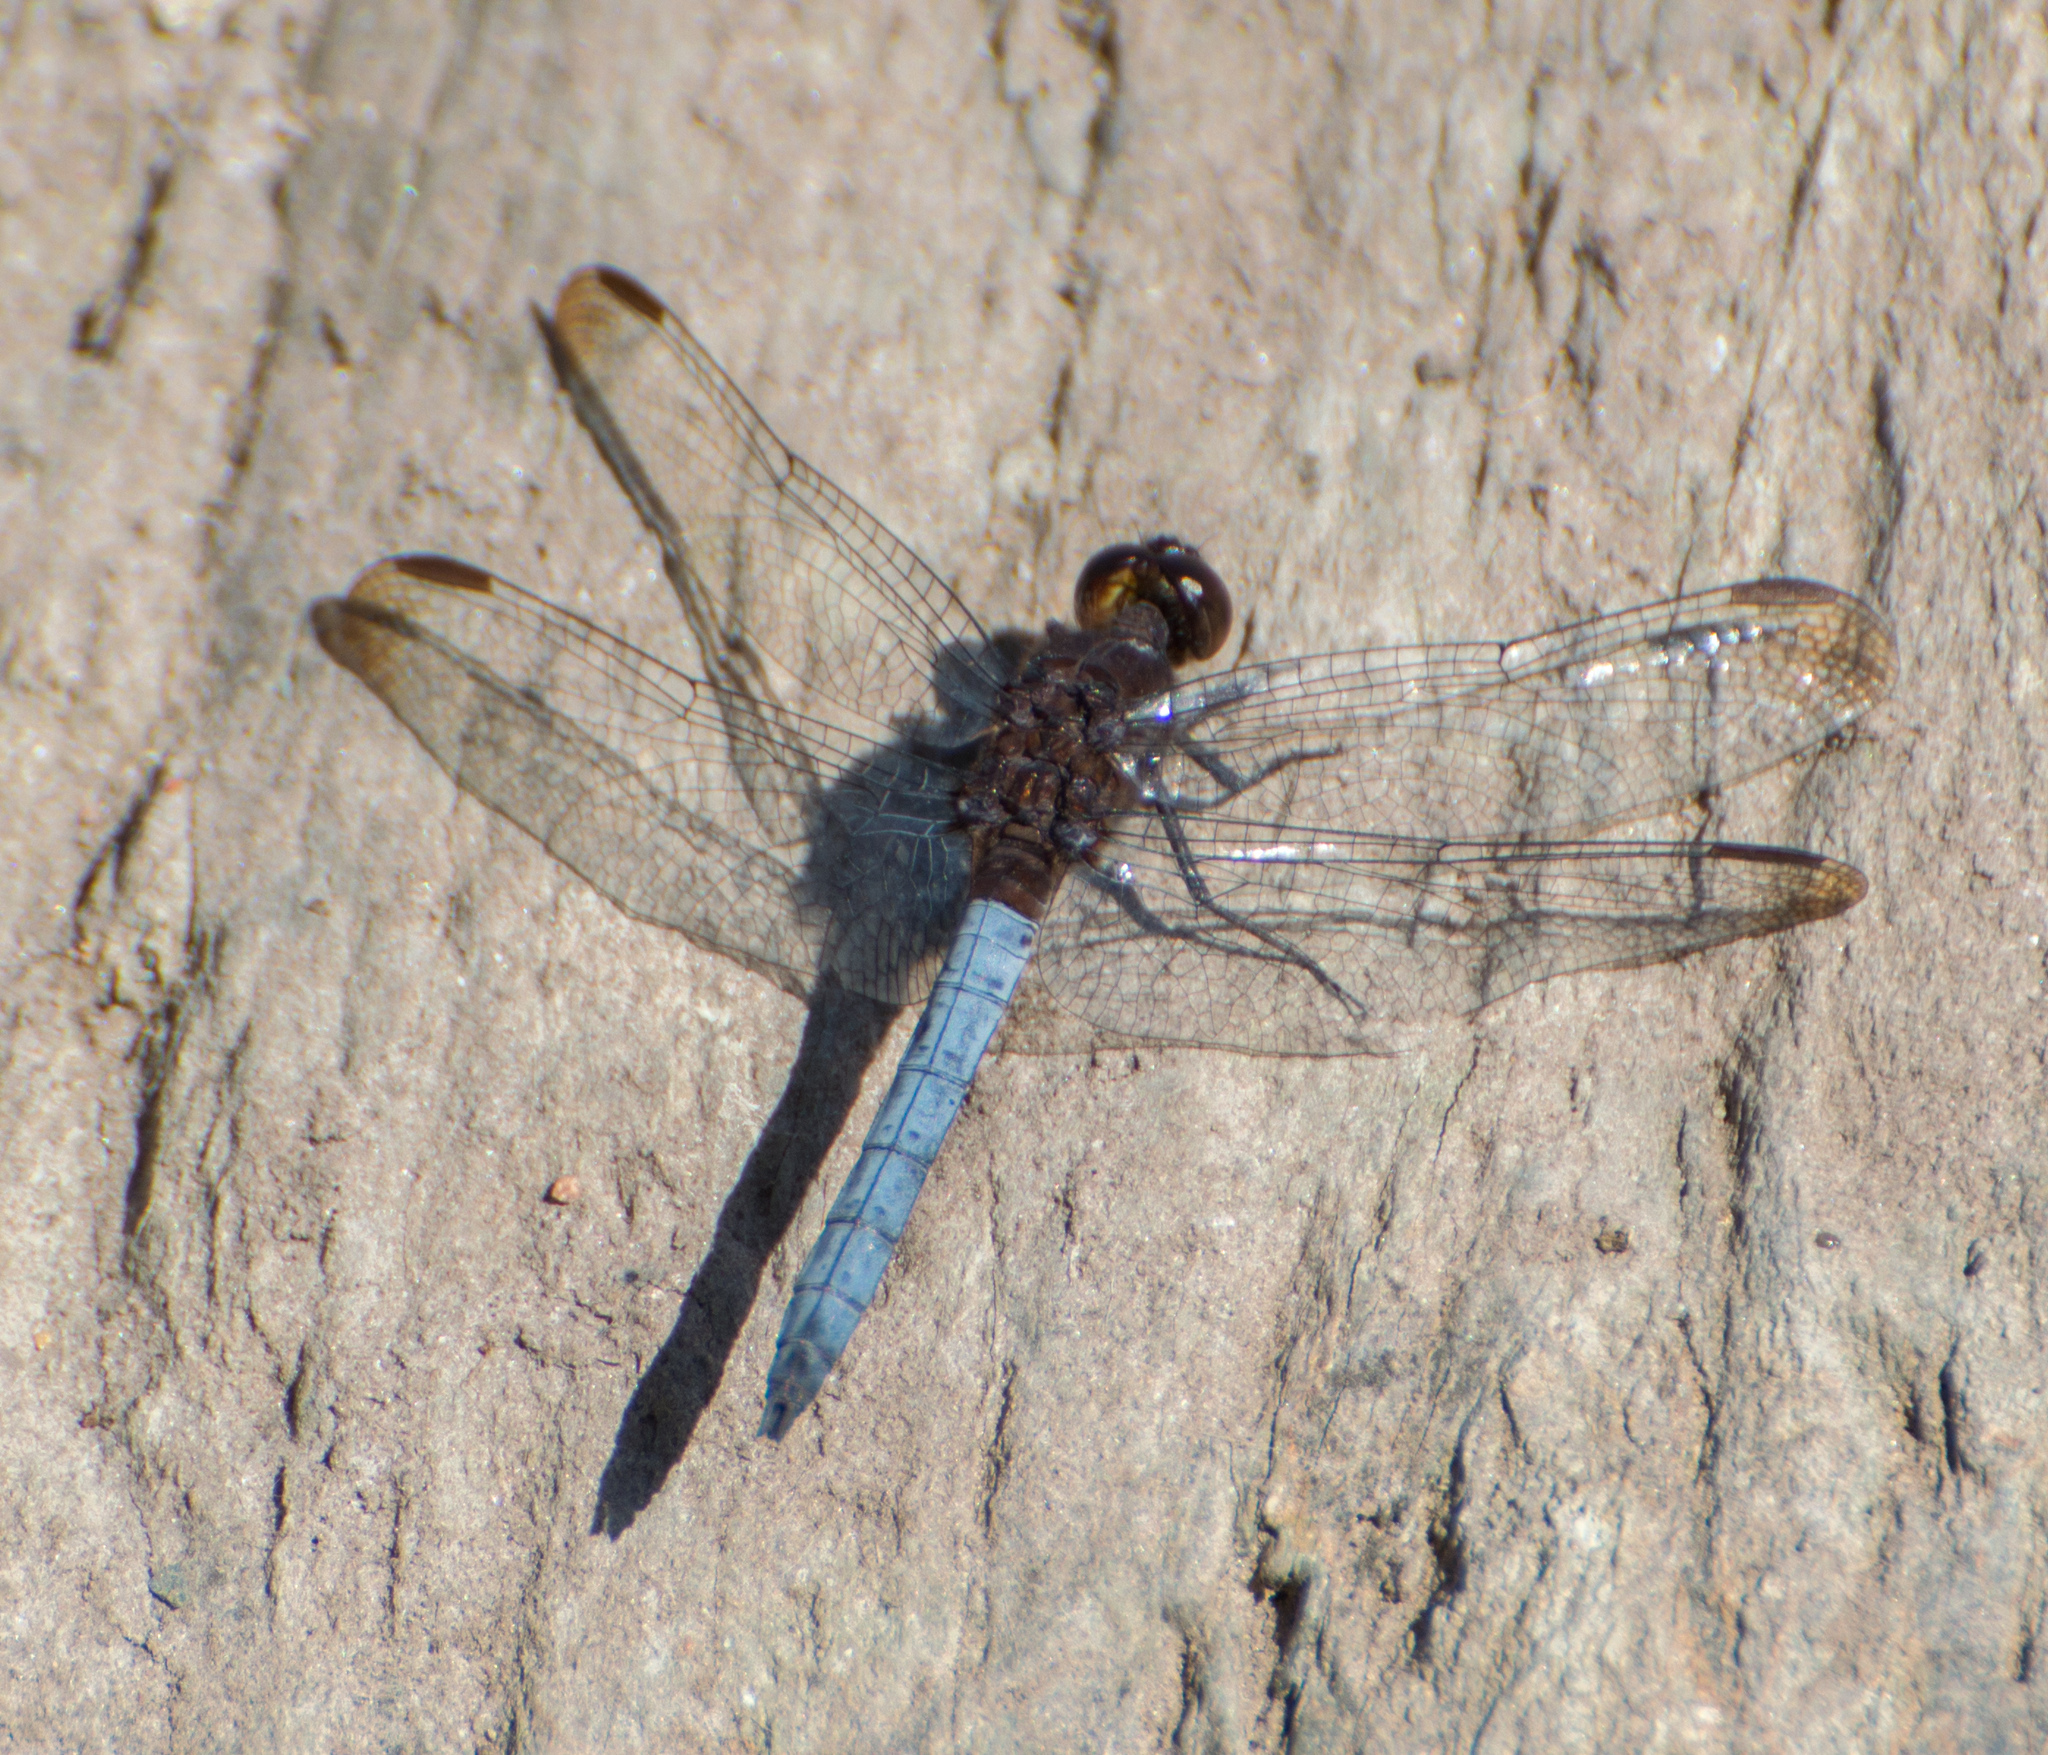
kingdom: Animalia
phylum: Arthropoda
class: Insecta
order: Odonata
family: Libellulidae
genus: Erythrodiplax
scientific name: Erythrodiplax atroterminata
